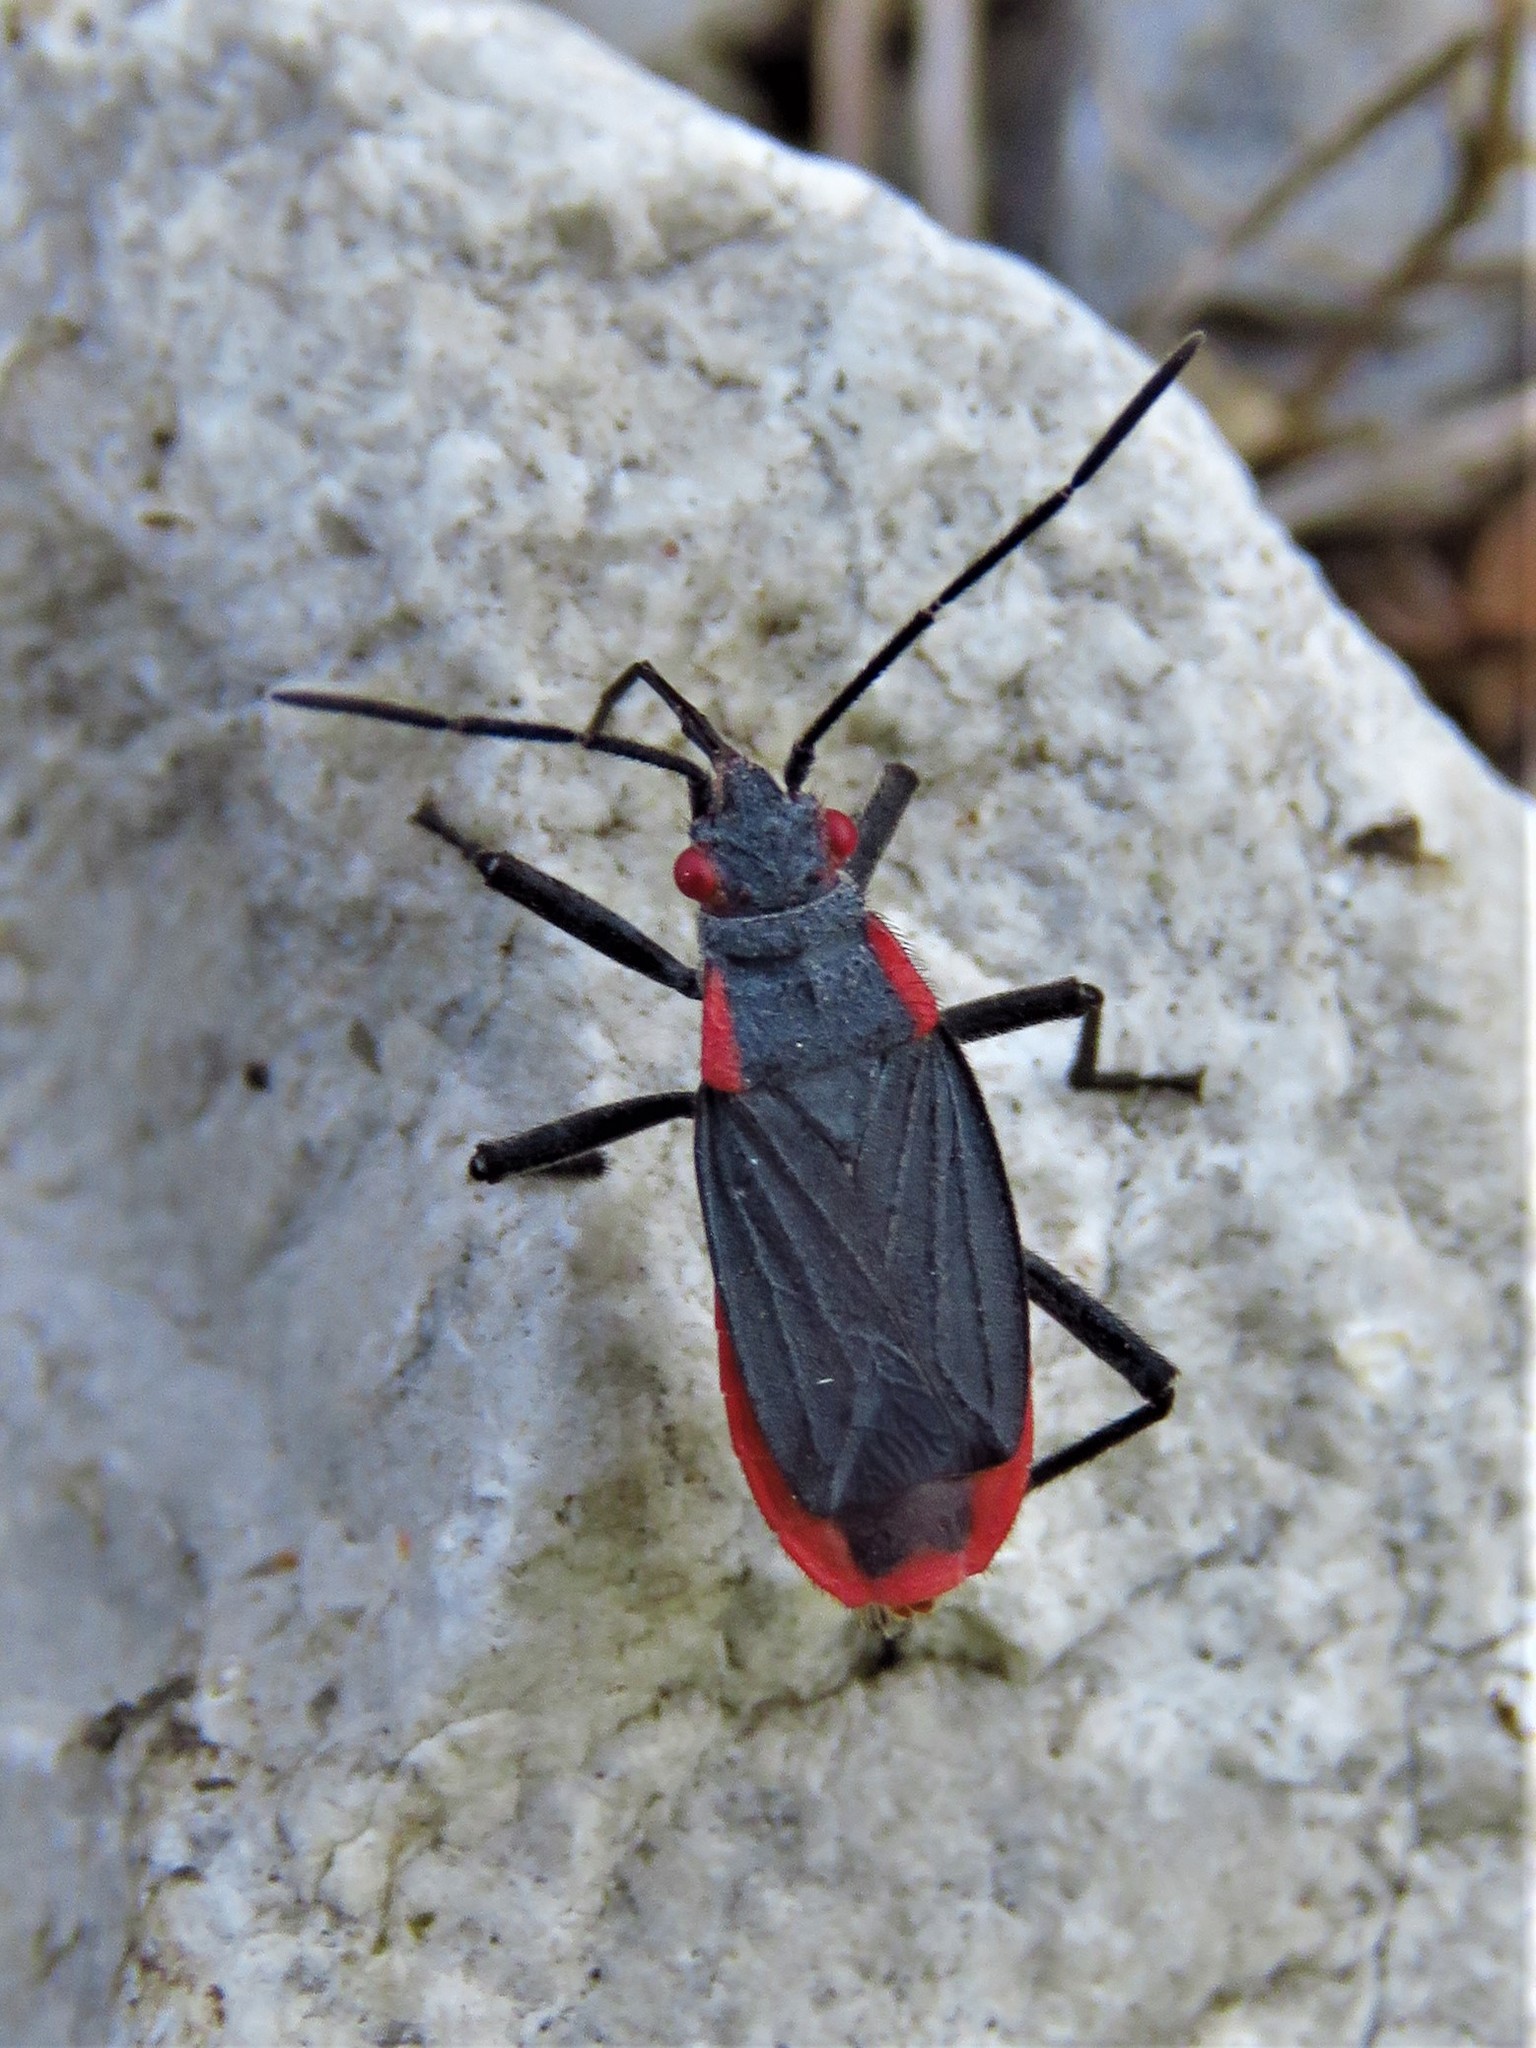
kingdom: Animalia
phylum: Arthropoda
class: Insecta
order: Hemiptera
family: Rhopalidae
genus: Jadera
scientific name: Jadera haematoloma
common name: Red-shouldered bug
